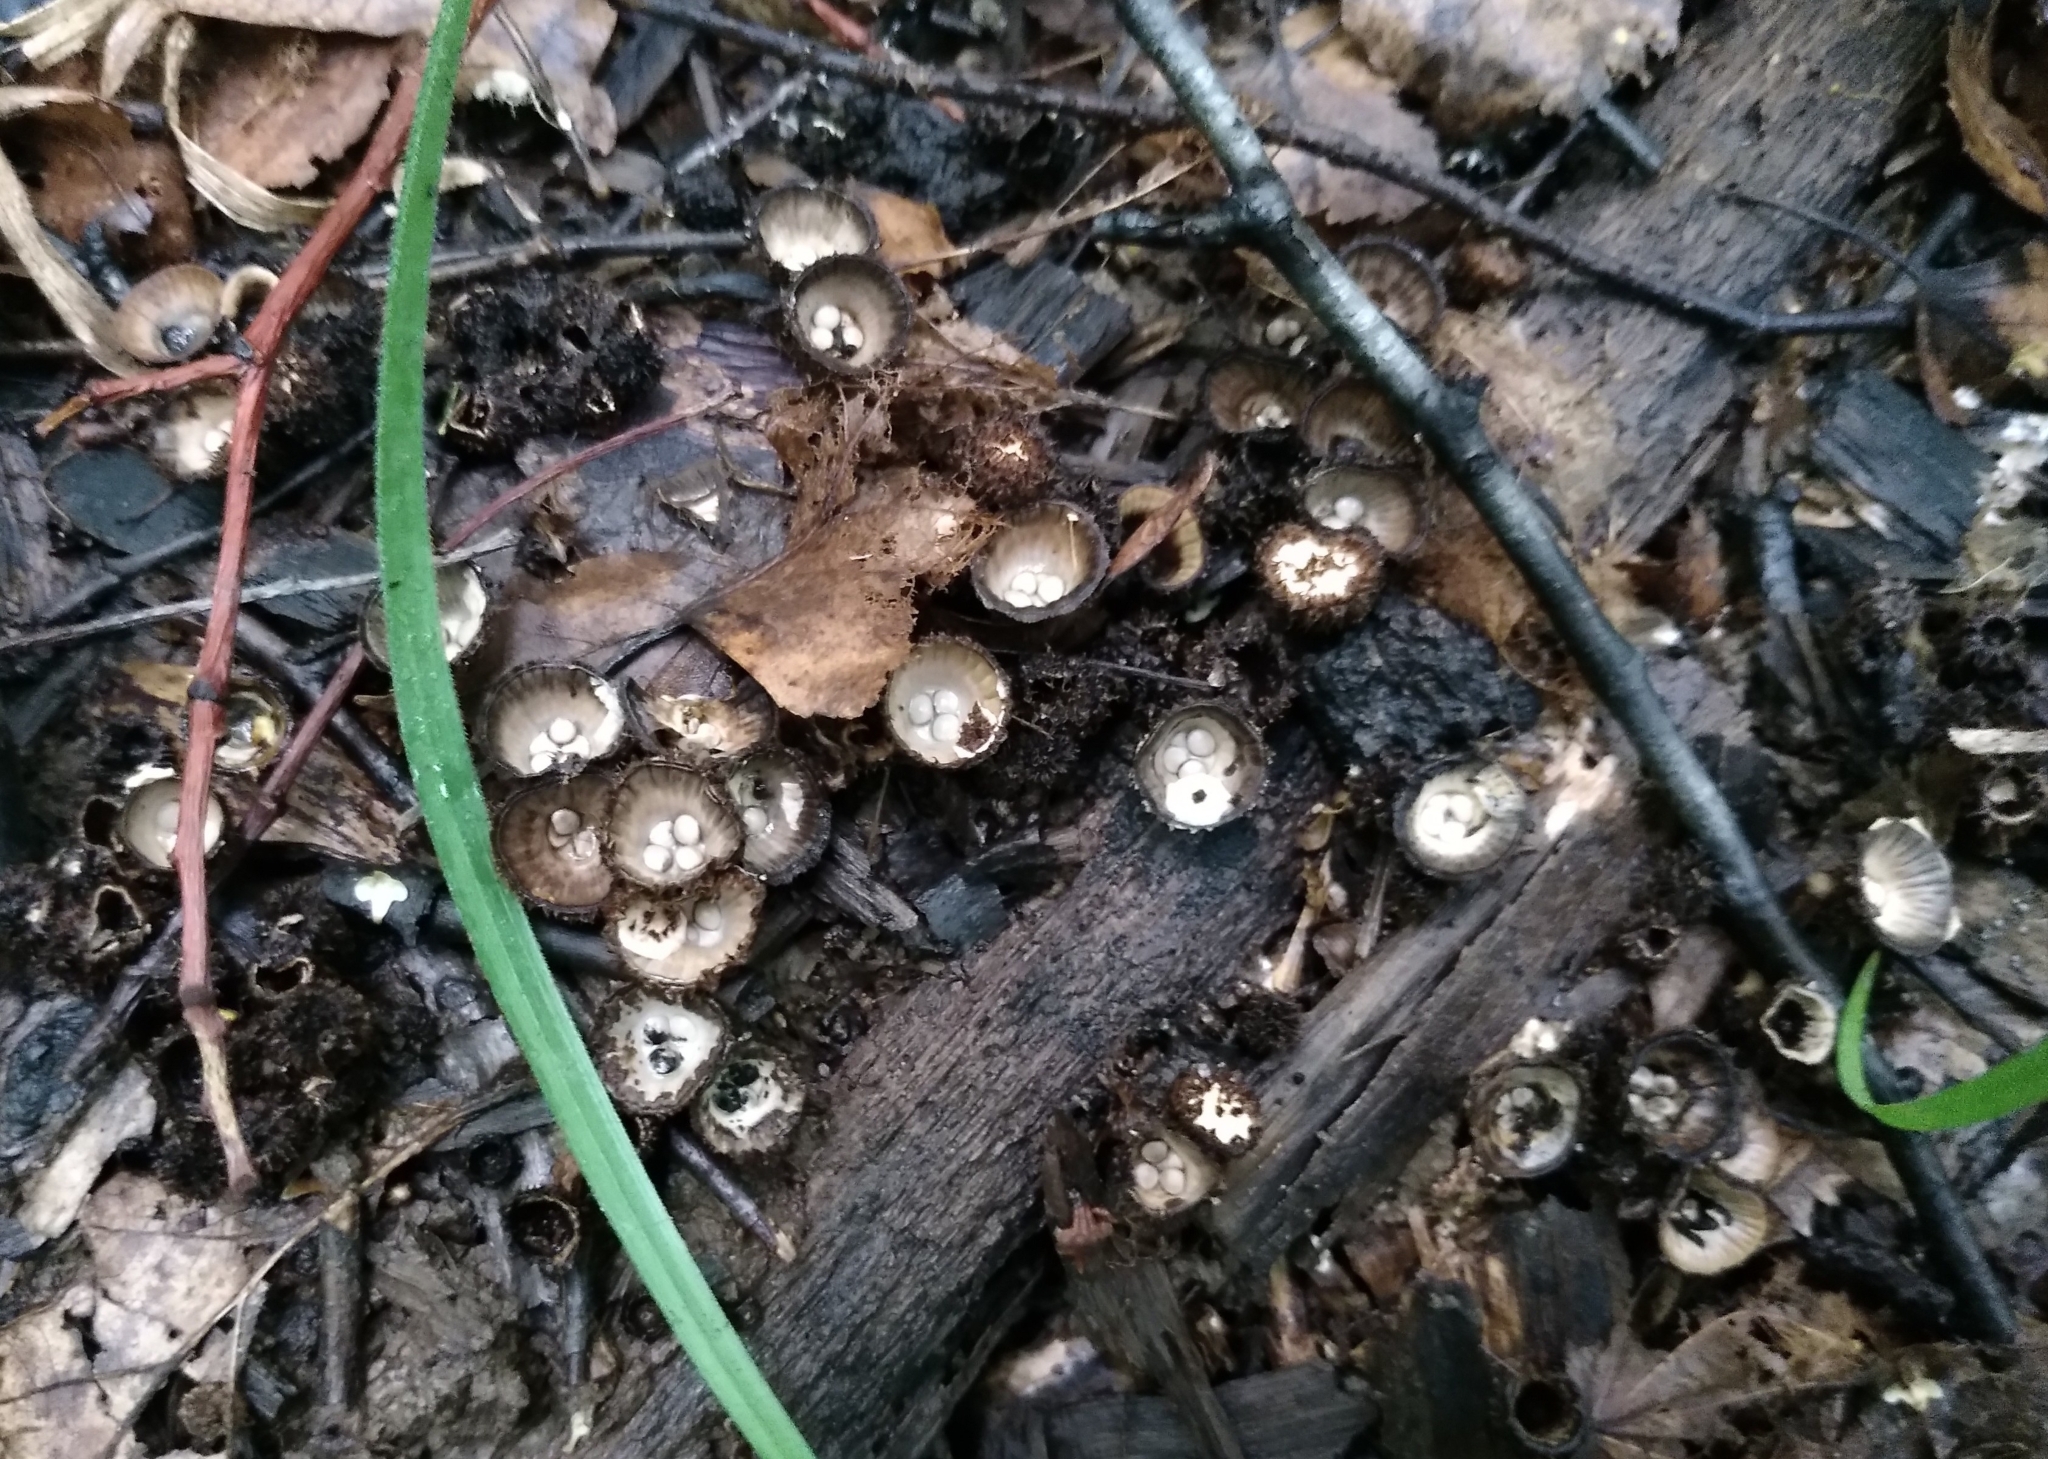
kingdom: Fungi
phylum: Basidiomycota
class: Agaricomycetes
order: Agaricales
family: Agaricaceae
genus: Cyathus
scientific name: Cyathus striatus
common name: Fluted bird's nest
